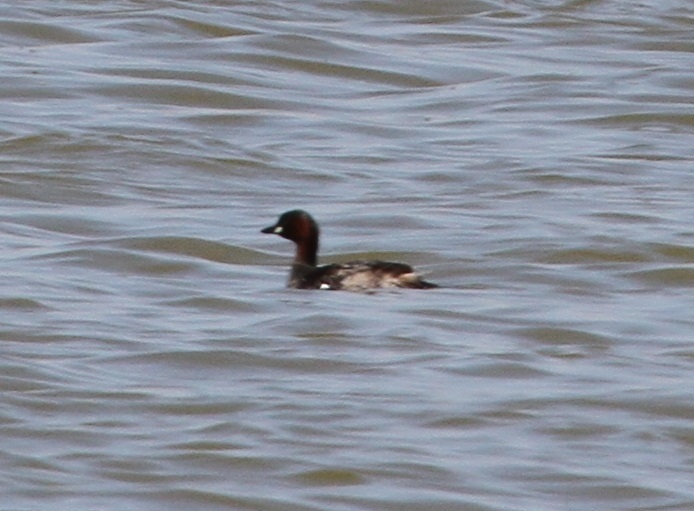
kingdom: Animalia
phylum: Chordata
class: Aves
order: Podicipediformes
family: Podicipedidae
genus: Tachybaptus
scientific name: Tachybaptus ruficollis
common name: Little grebe
